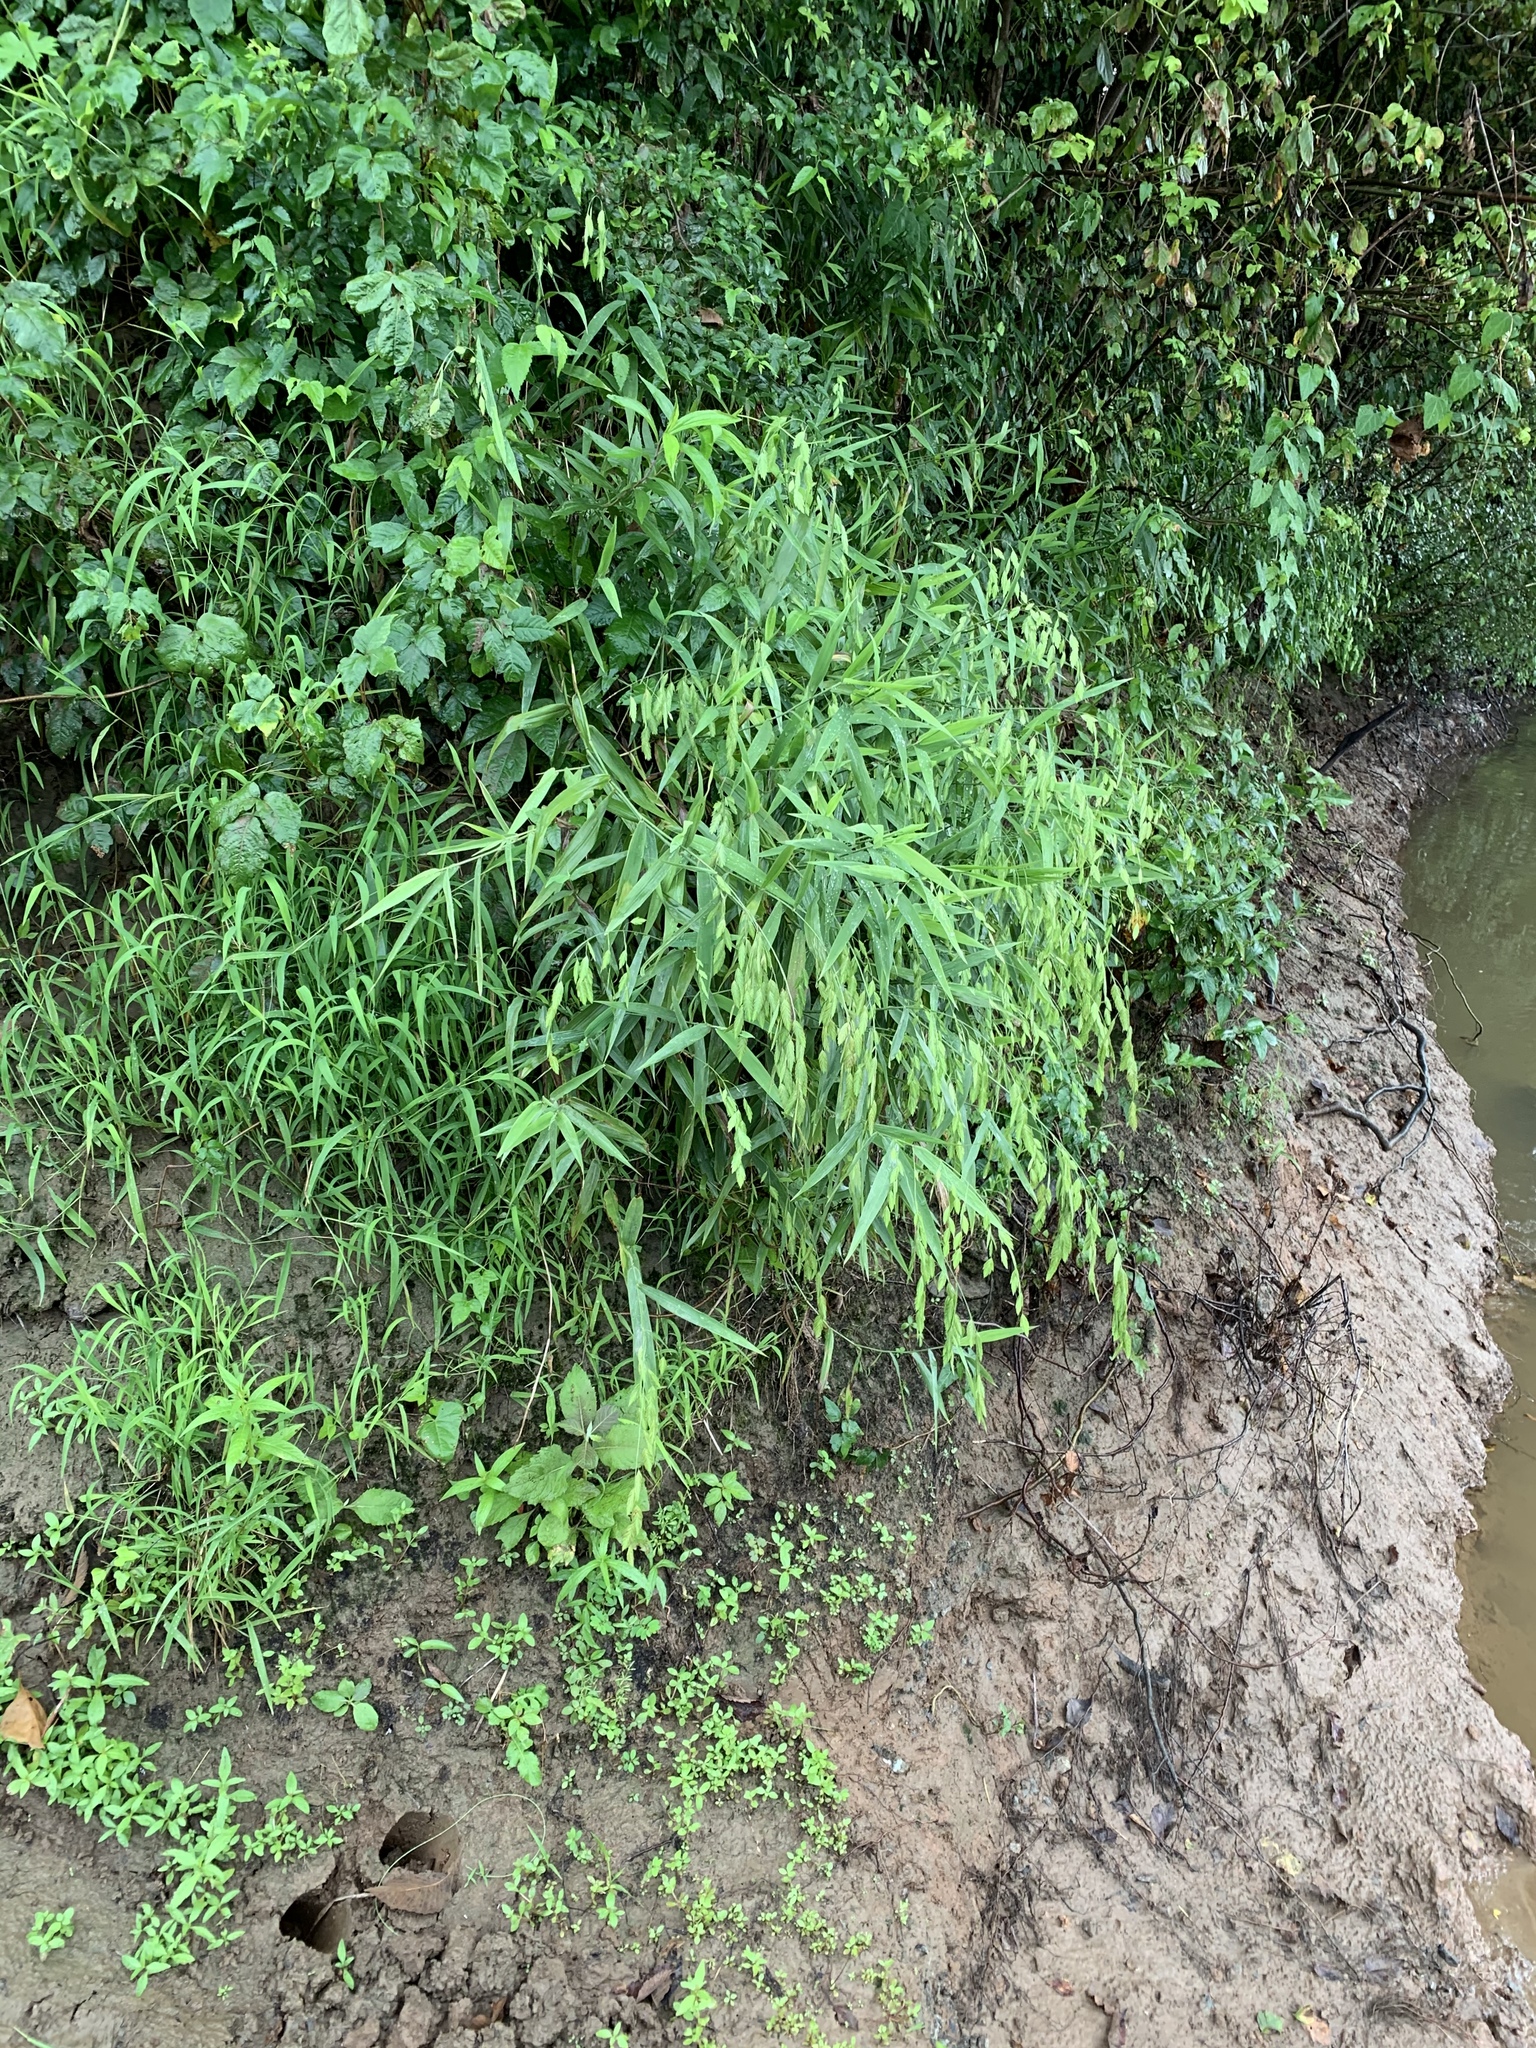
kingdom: Plantae
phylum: Tracheophyta
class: Liliopsida
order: Poales
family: Poaceae
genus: Chasmanthium
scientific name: Chasmanthium latifolium
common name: Broad-leaved chasmanthium
